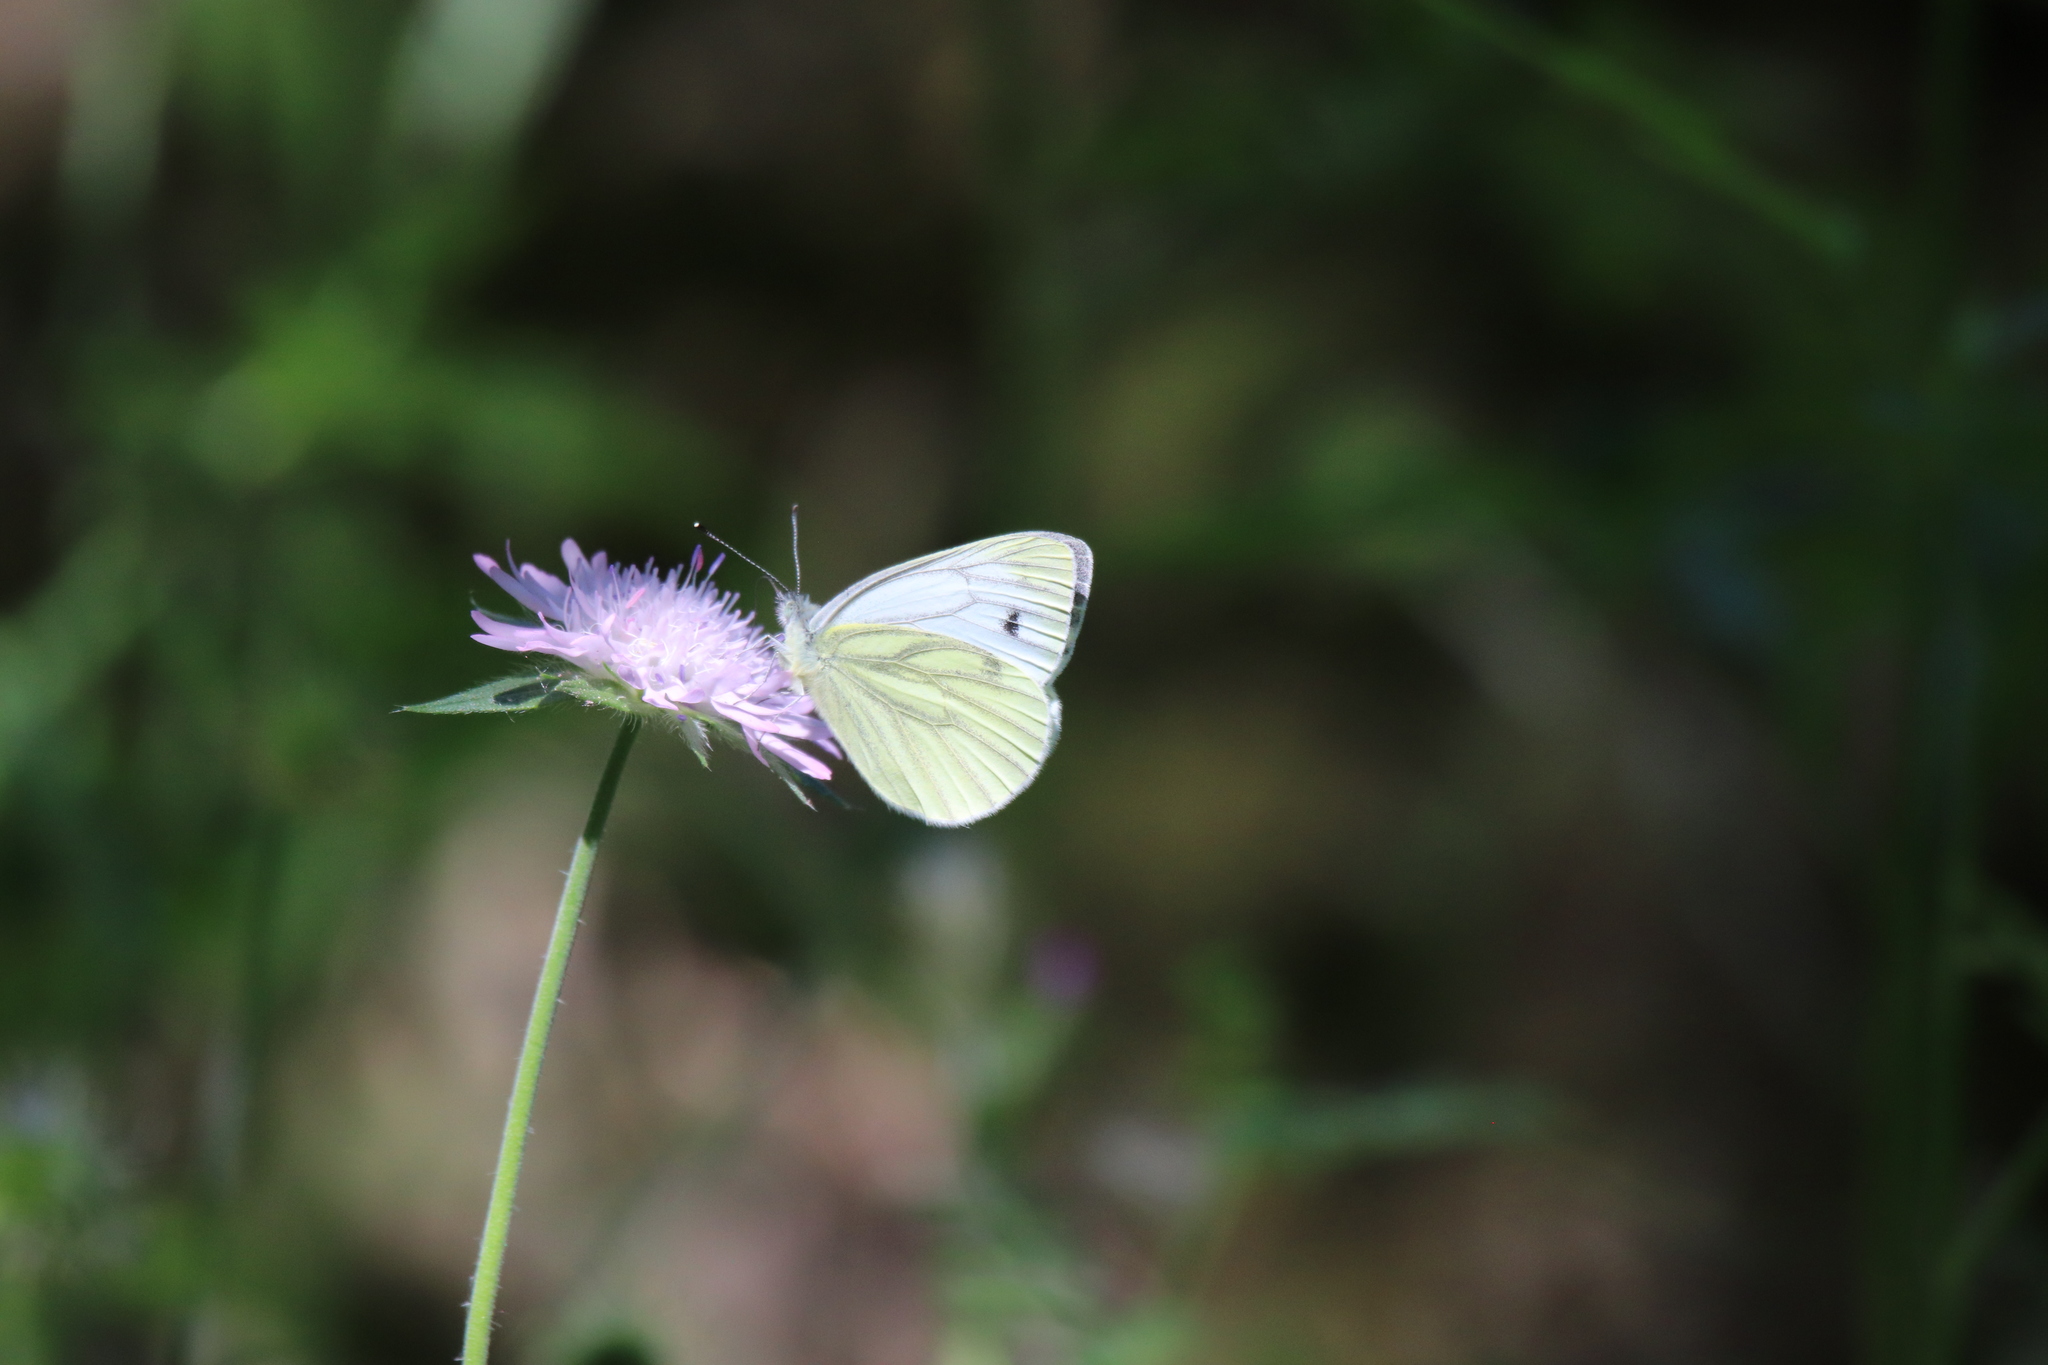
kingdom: Animalia
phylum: Arthropoda
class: Insecta
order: Lepidoptera
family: Pieridae
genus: Pieris
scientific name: Pieris napi
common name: Green-veined white
